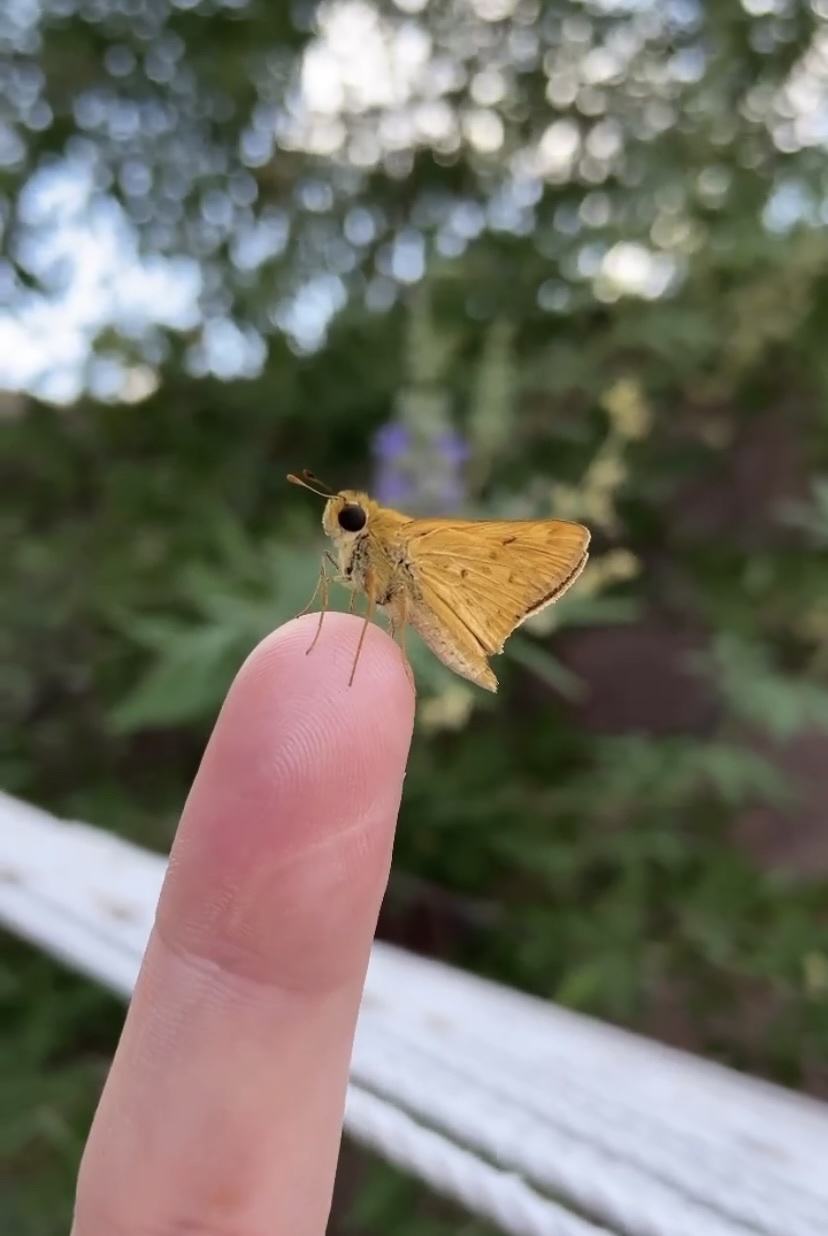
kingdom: Animalia
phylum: Arthropoda
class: Insecta
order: Lepidoptera
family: Hesperiidae
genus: Hylephila
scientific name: Hylephila phyleus
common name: Fiery skipper
